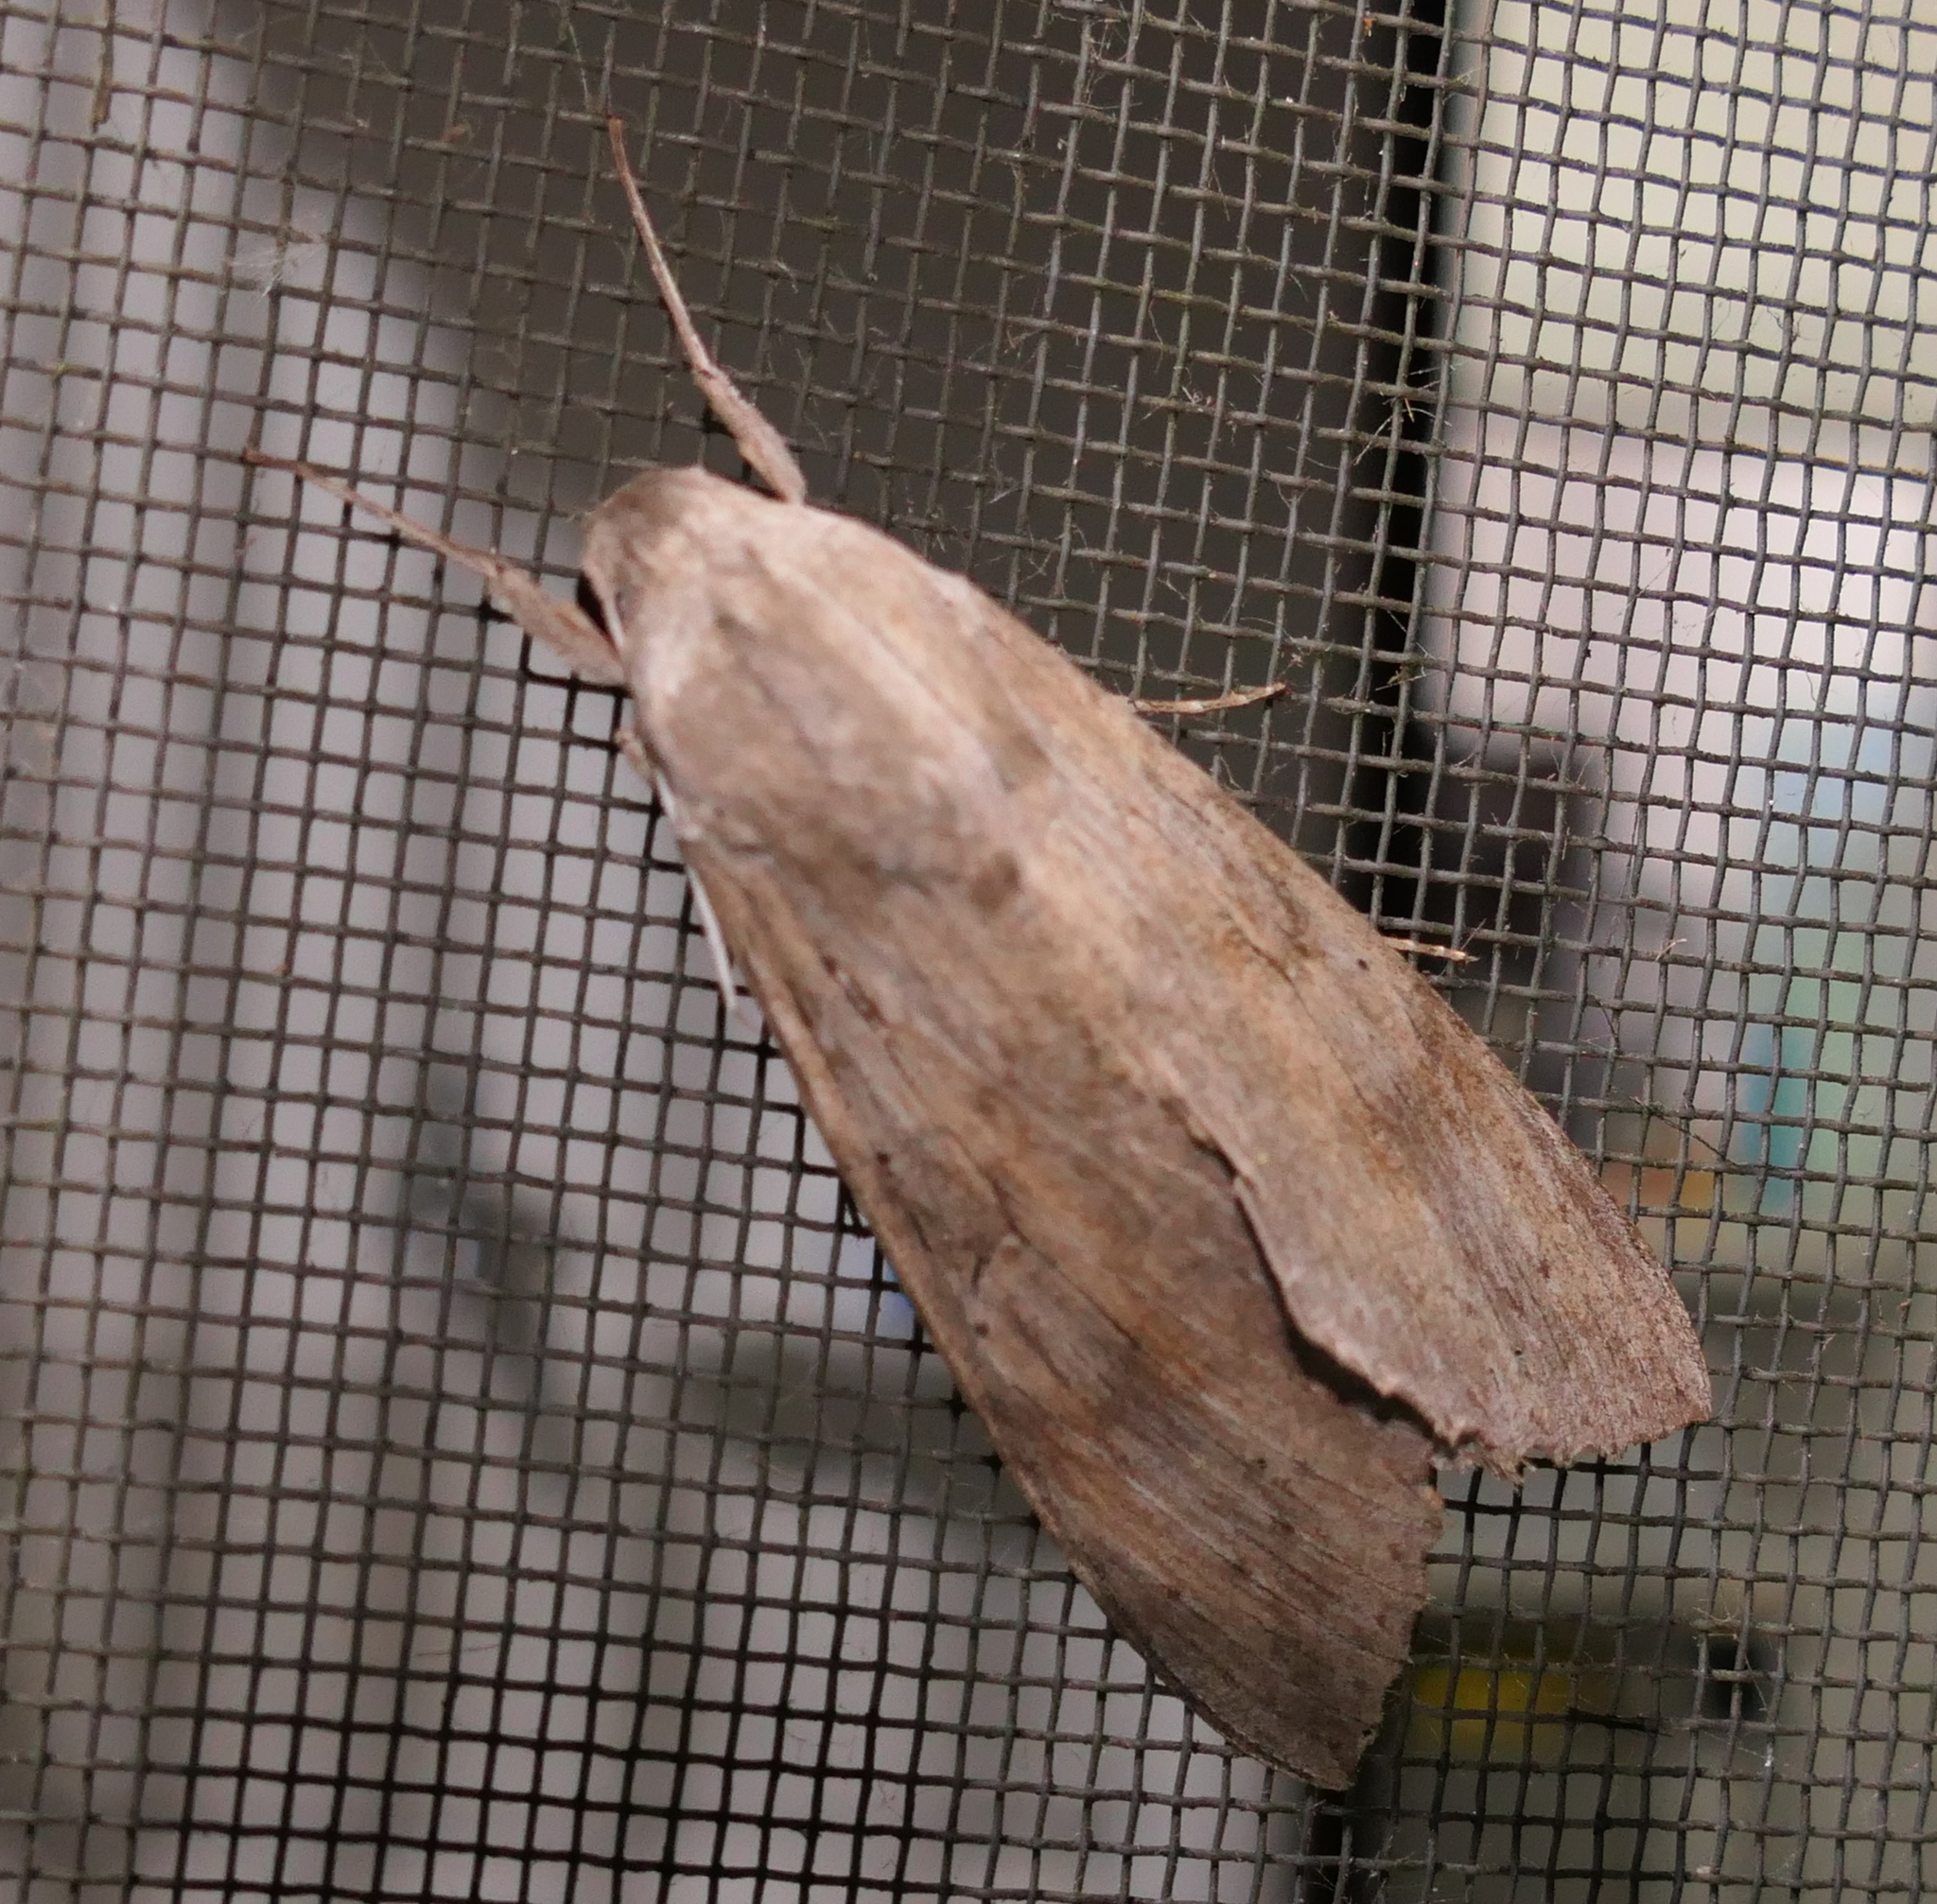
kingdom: Animalia
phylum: Arthropoda
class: Insecta
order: Lepidoptera
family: Sphingidae
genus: Erinnyis
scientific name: Erinnyis ello
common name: Ello sphinx
